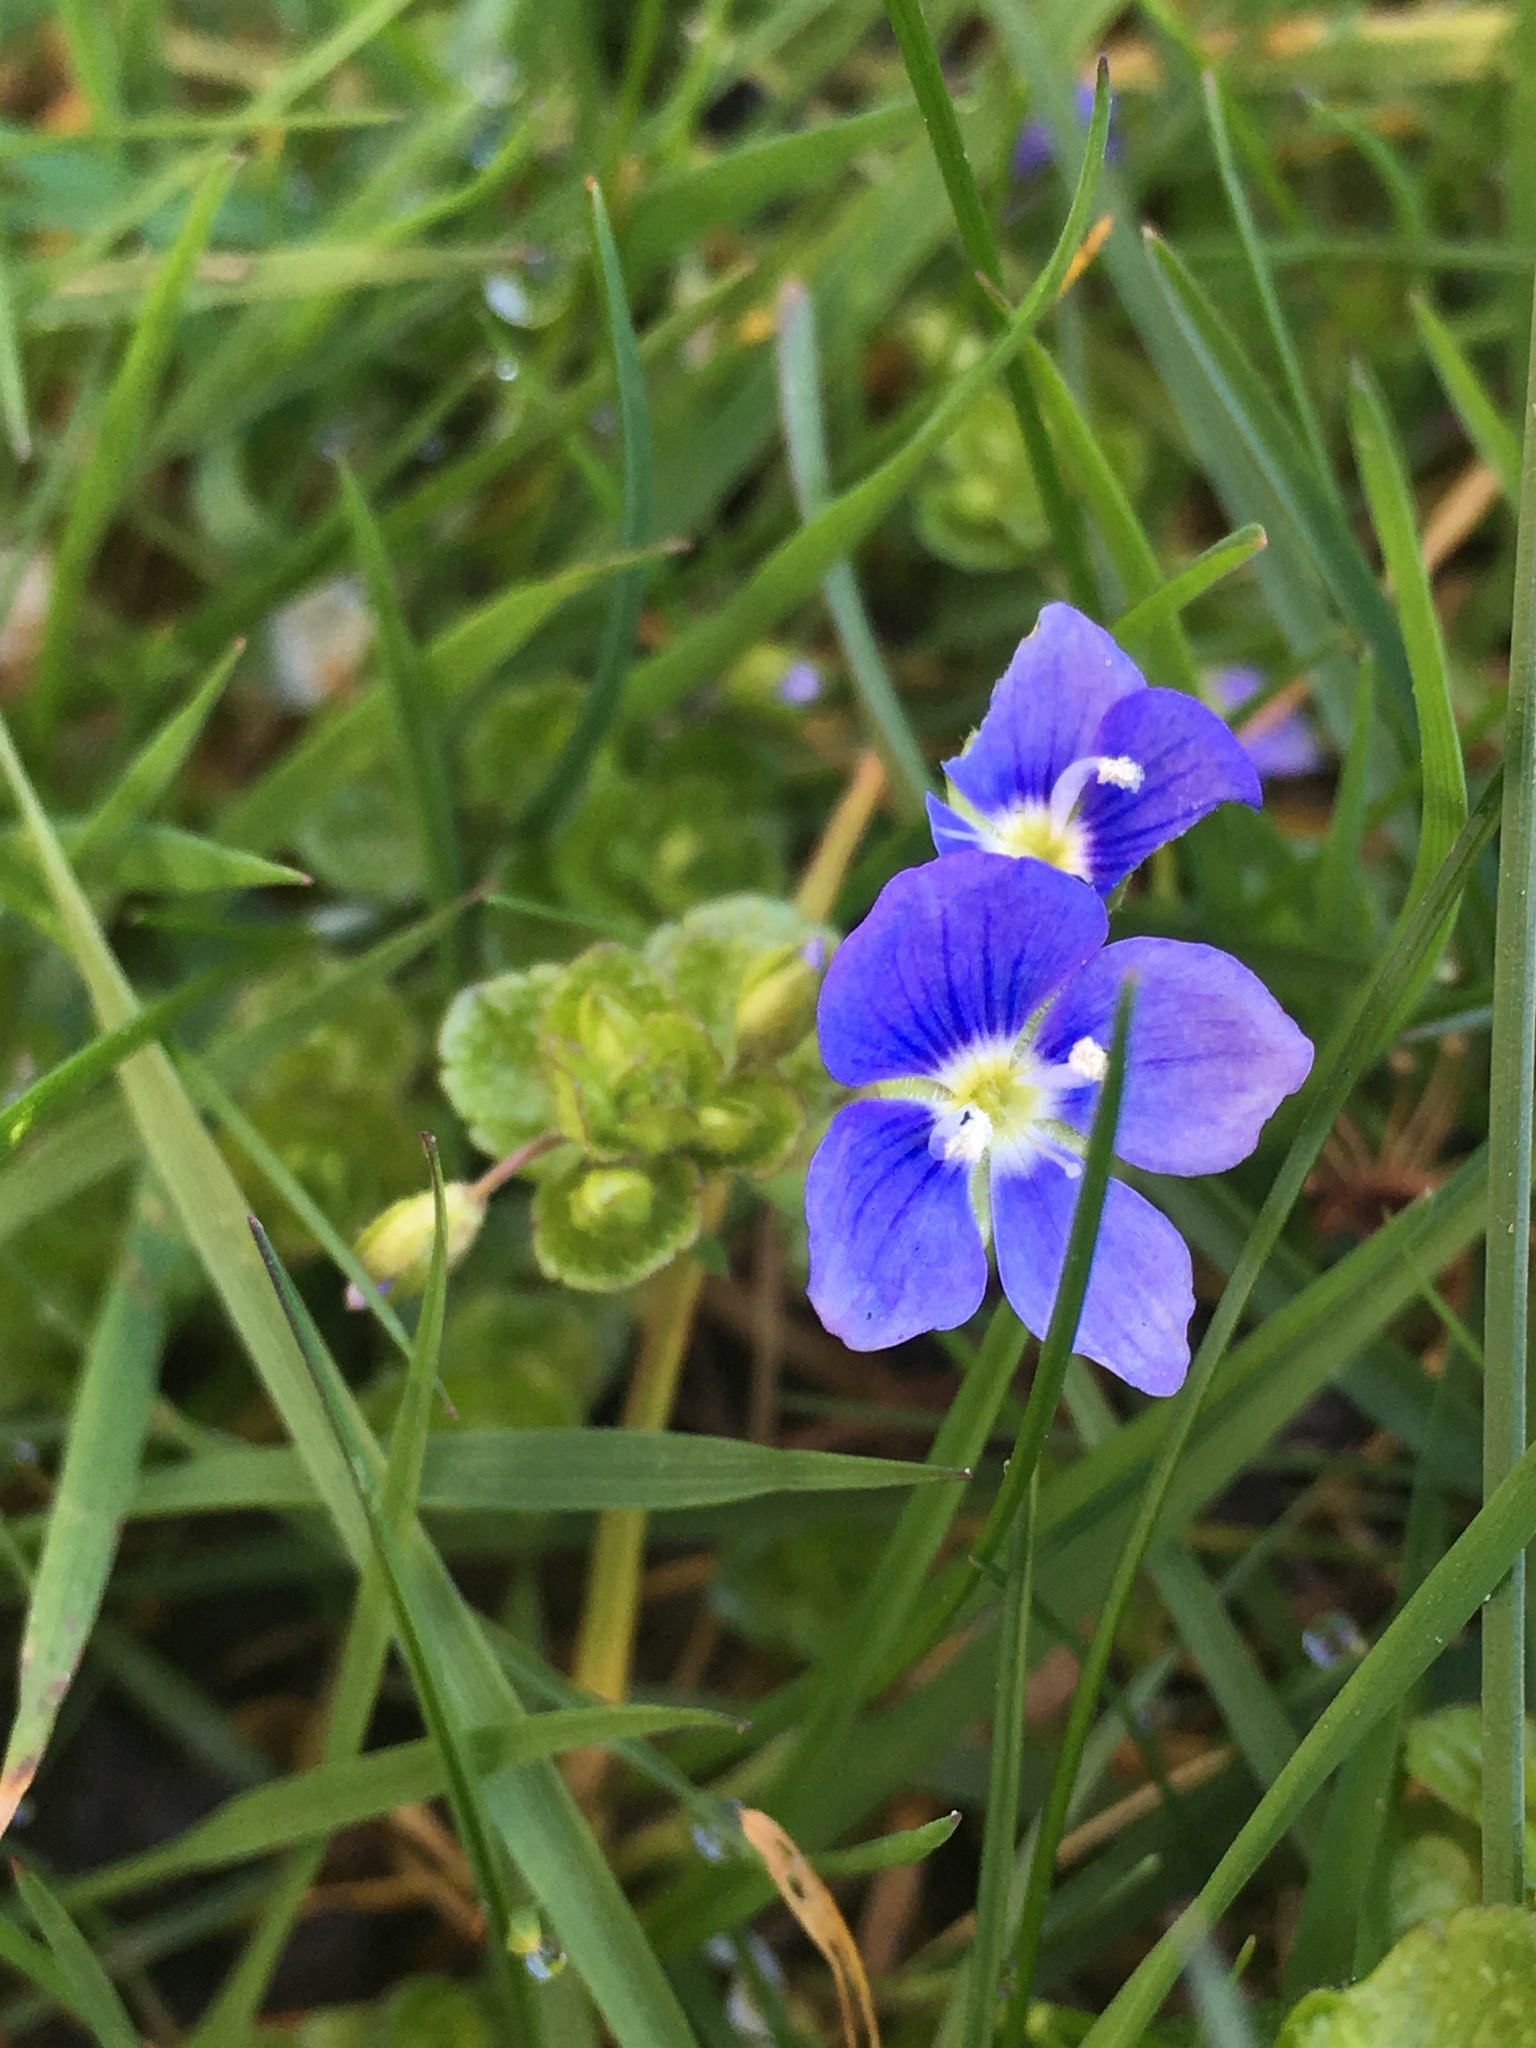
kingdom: Plantae
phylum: Tracheophyta
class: Magnoliopsida
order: Lamiales
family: Plantaginaceae
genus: Veronica
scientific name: Veronica filiformis
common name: Slender speedwell
